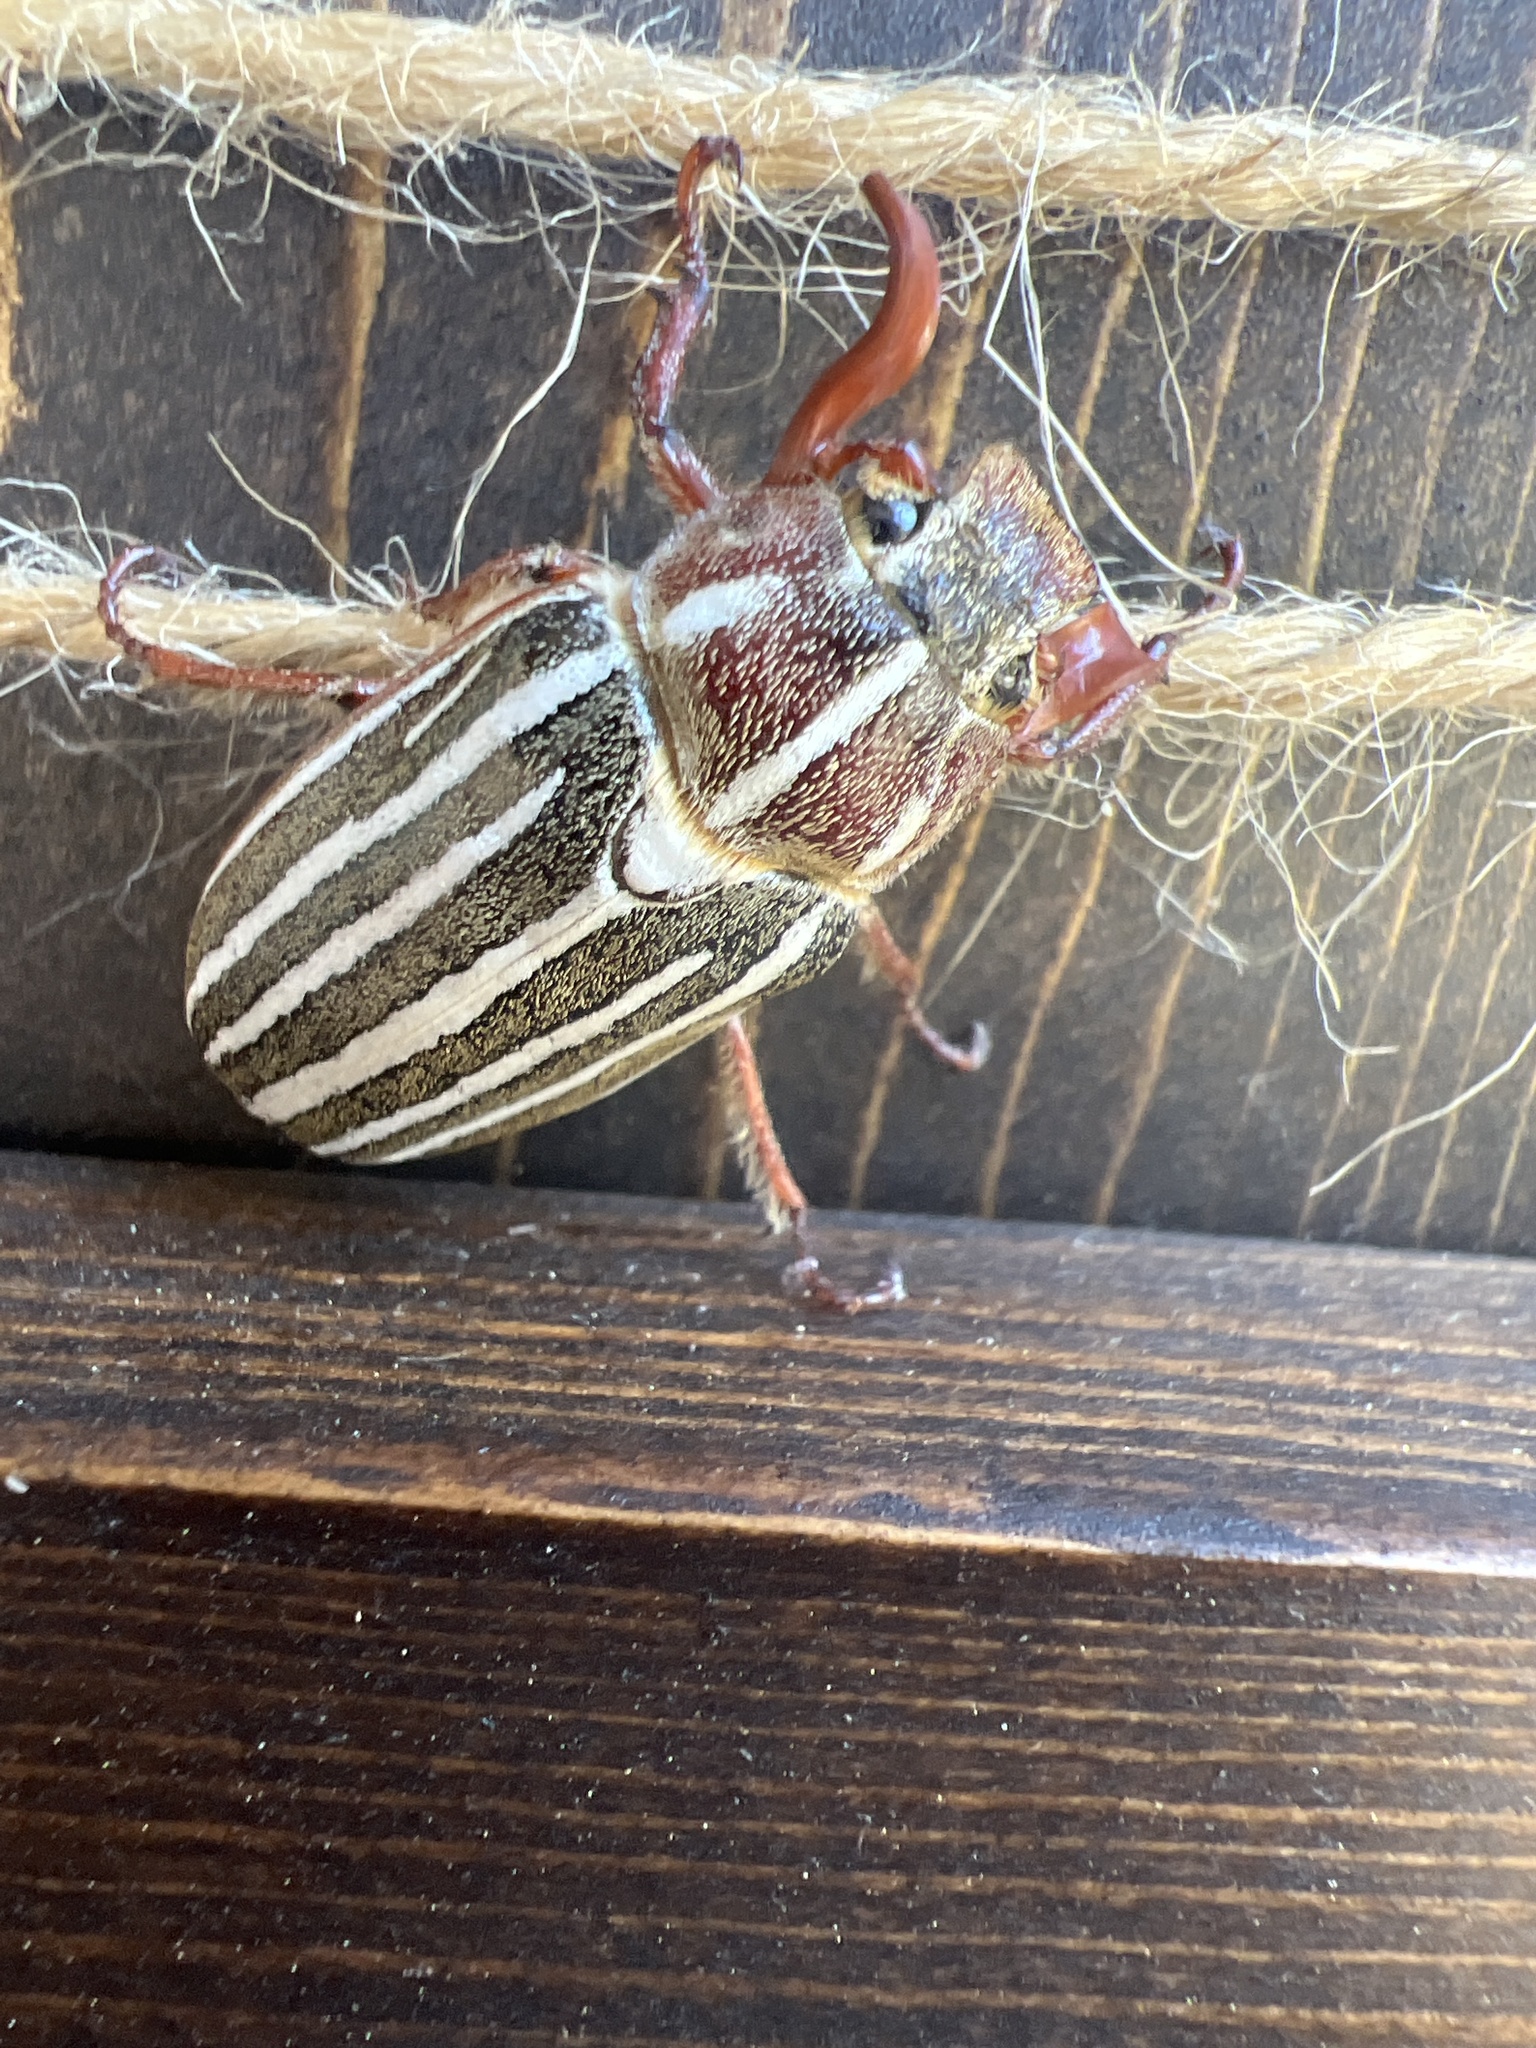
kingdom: Animalia
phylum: Arthropoda
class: Insecta
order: Coleoptera
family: Scarabaeidae
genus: Polyphylla
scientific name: Polyphylla crinita
